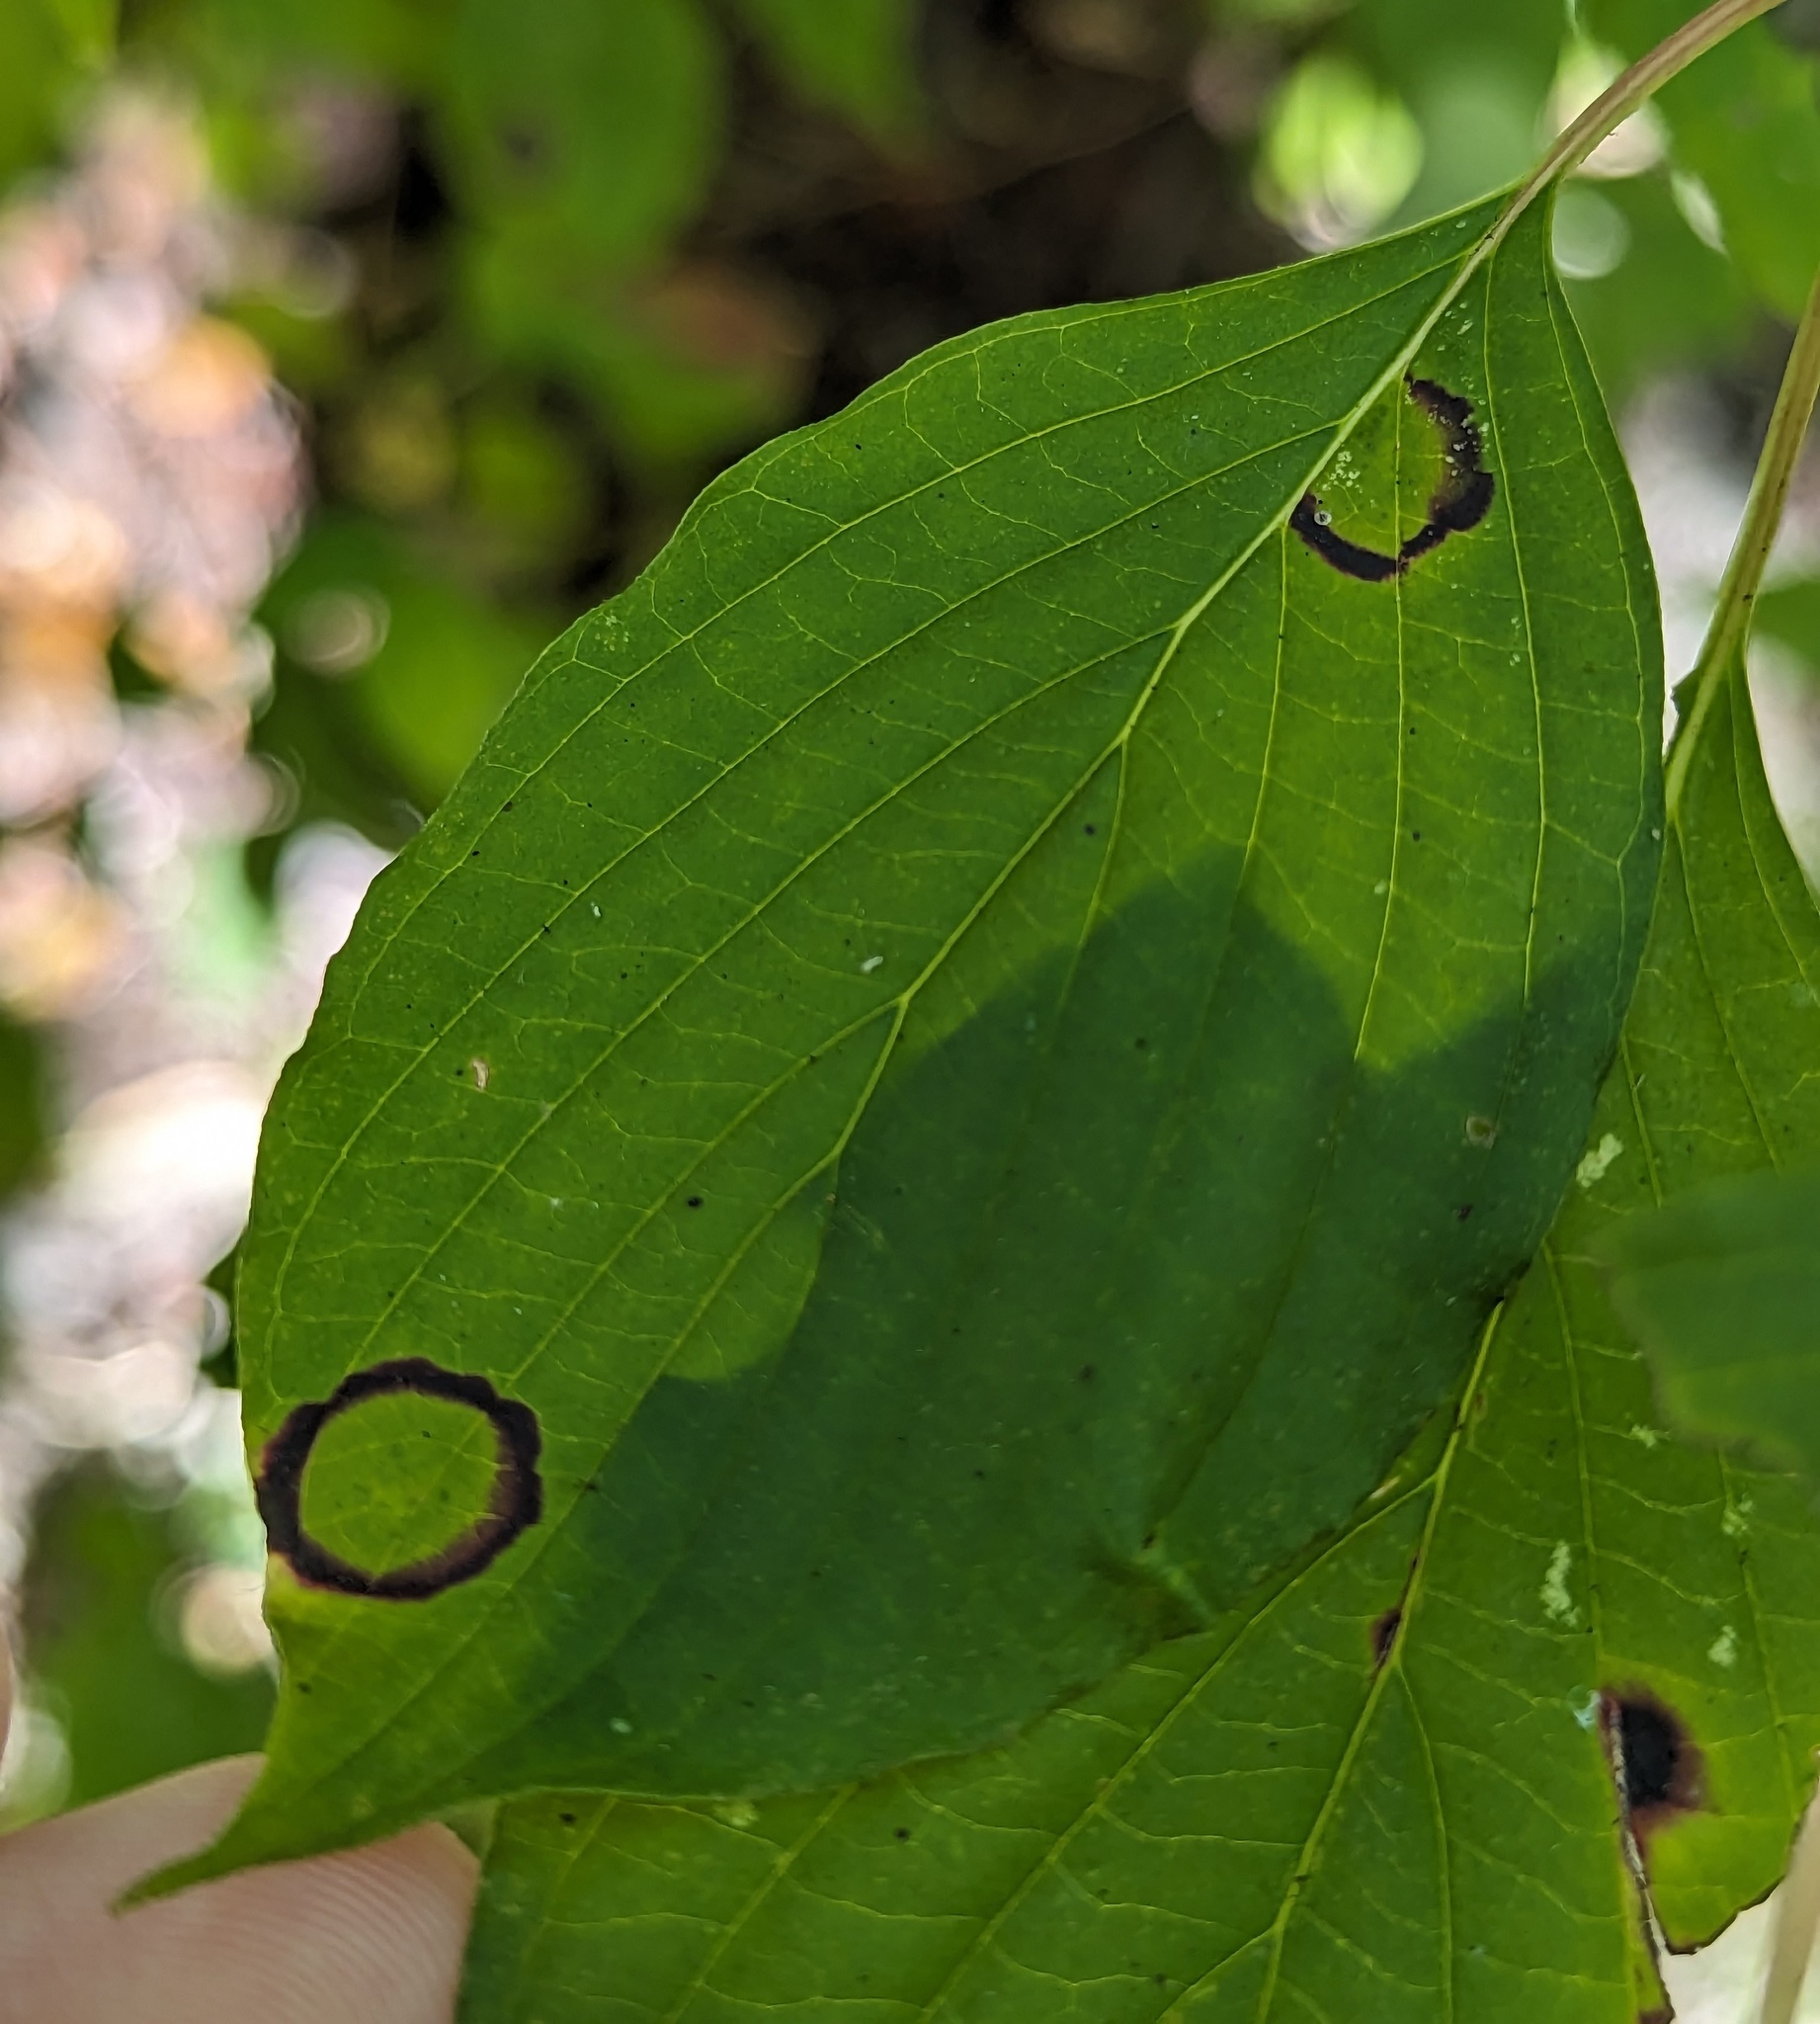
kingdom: Animalia
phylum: Arthropoda
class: Insecta
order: Diptera
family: Cecidomyiidae
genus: Parallelodiplosis
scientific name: Parallelodiplosis subtruncata
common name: Dogwood eyespot gall midge
